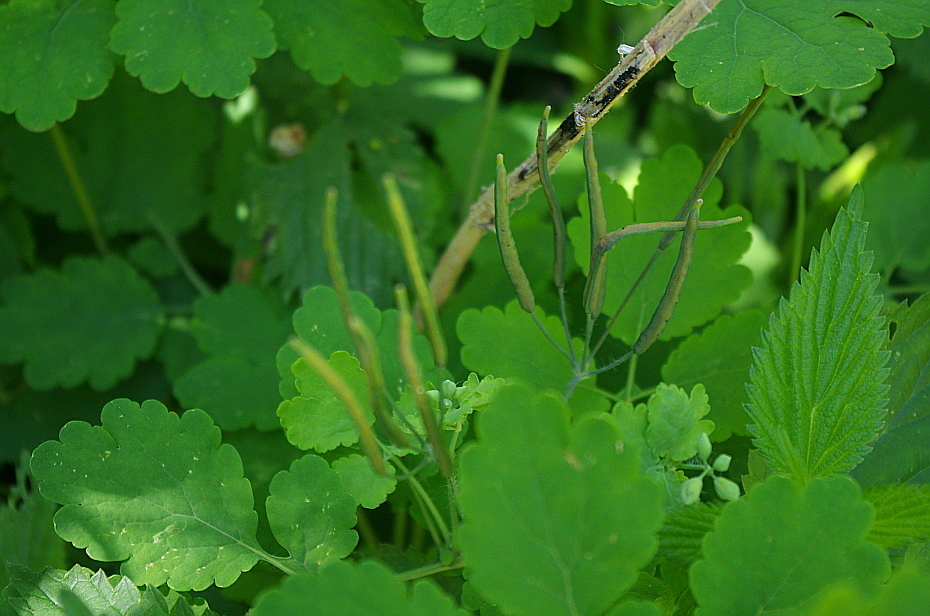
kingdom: Plantae
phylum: Tracheophyta
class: Magnoliopsida
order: Ranunculales
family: Papaveraceae
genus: Chelidonium
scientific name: Chelidonium majus
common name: Greater celandine
